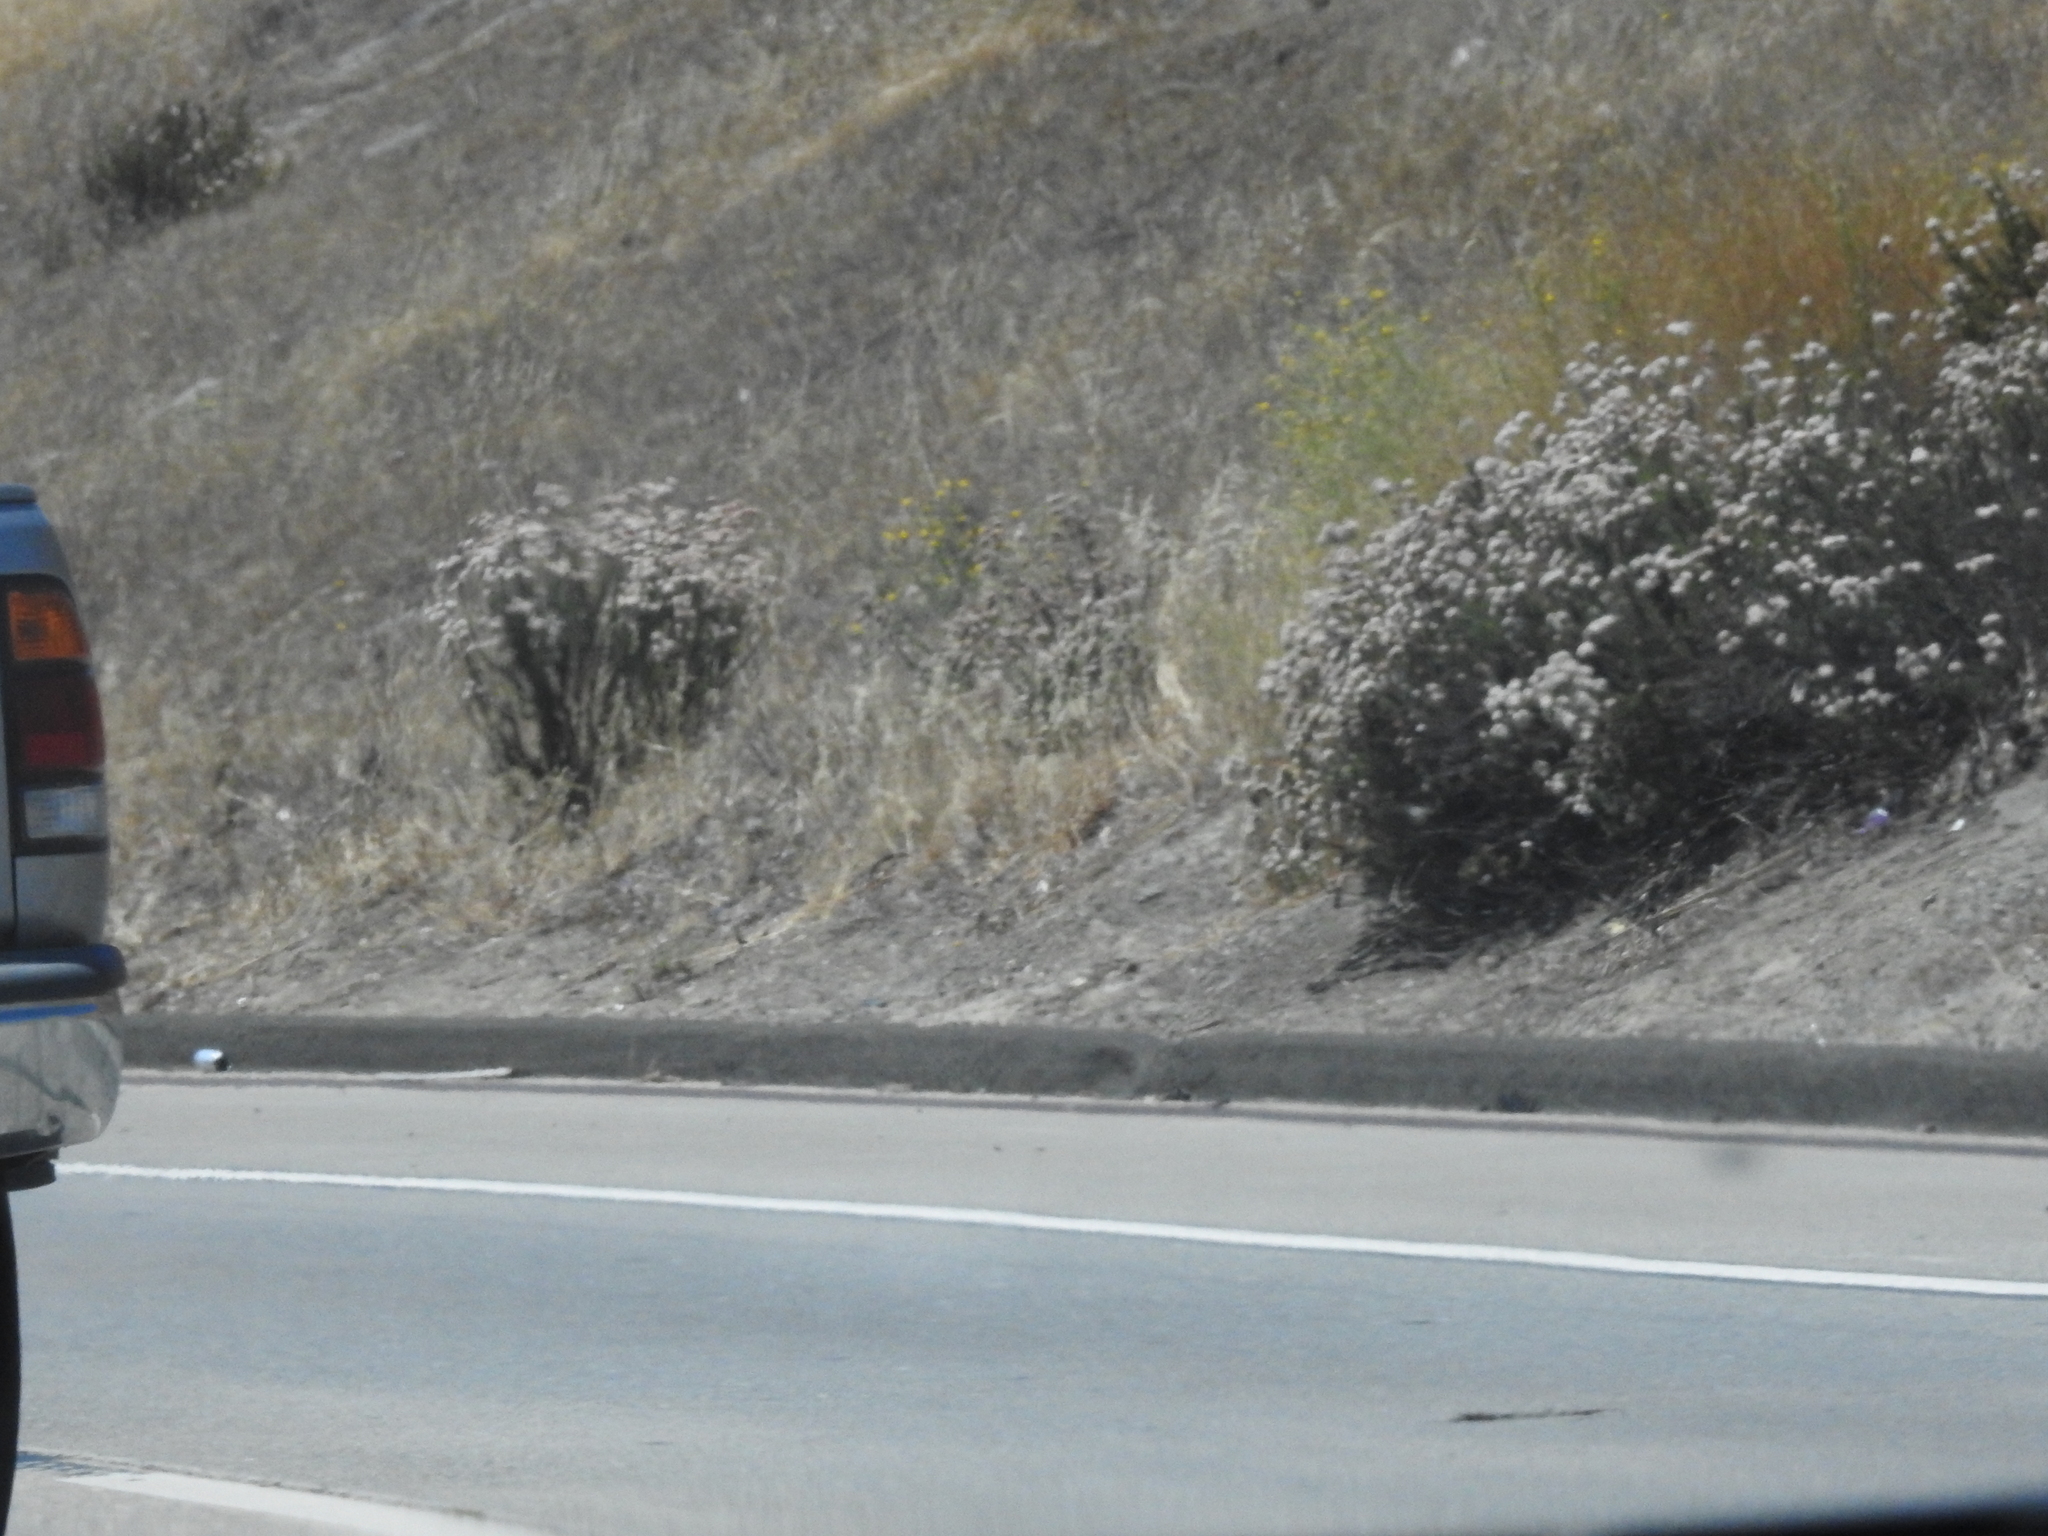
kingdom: Plantae
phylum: Tracheophyta
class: Magnoliopsida
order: Caryophyllales
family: Polygonaceae
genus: Eriogonum
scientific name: Eriogonum fasciculatum
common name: California wild buckwheat
